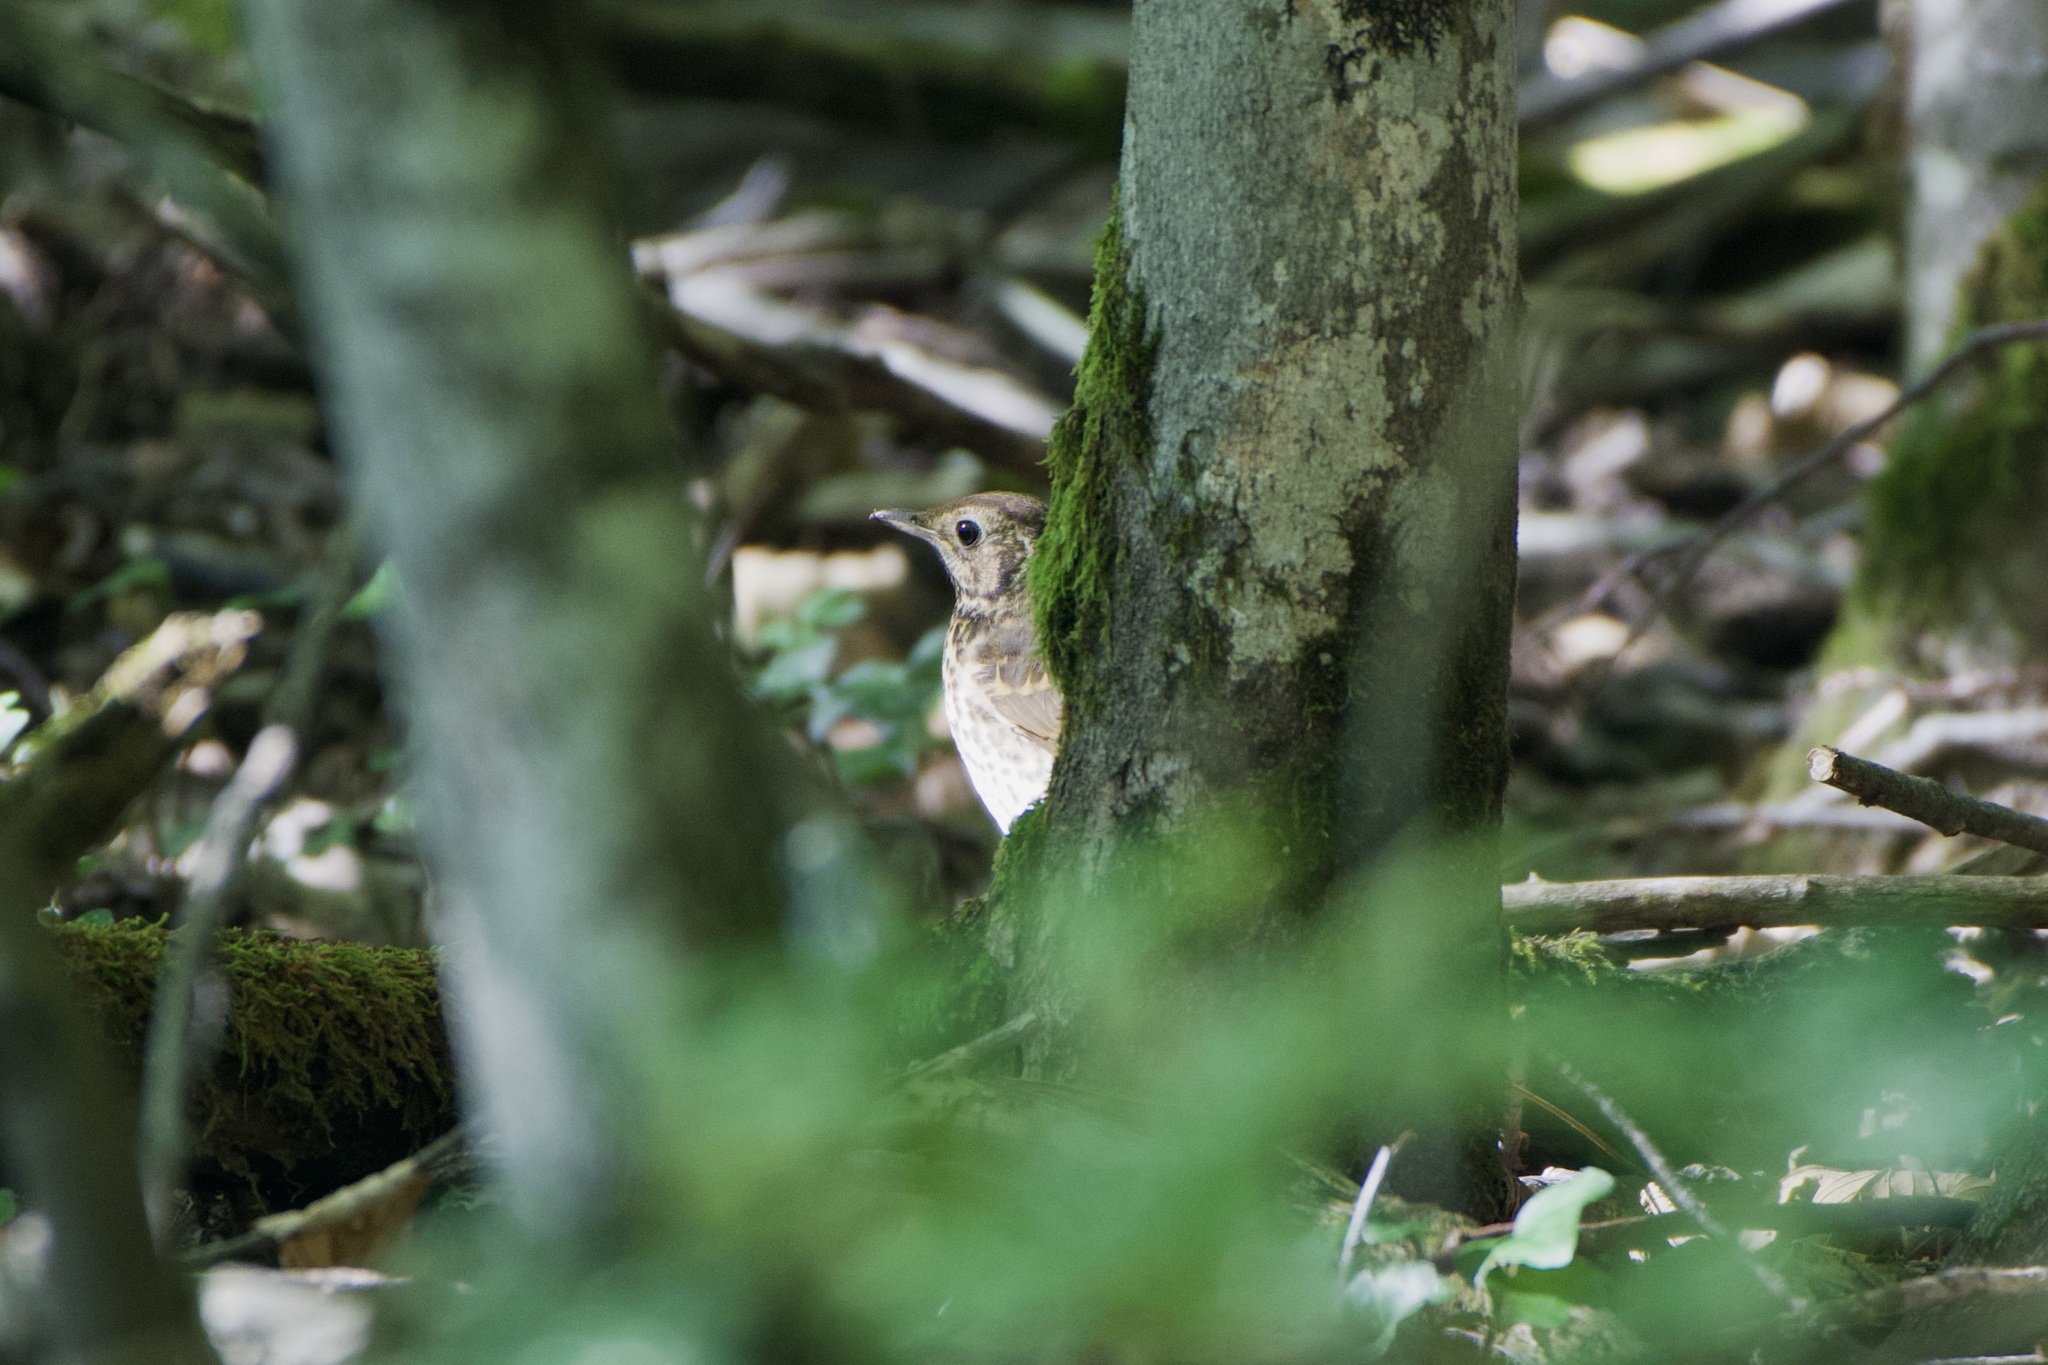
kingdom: Animalia
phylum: Chordata
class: Aves
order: Passeriformes
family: Turdidae
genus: Turdus
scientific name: Turdus philomelos
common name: Song thrush
